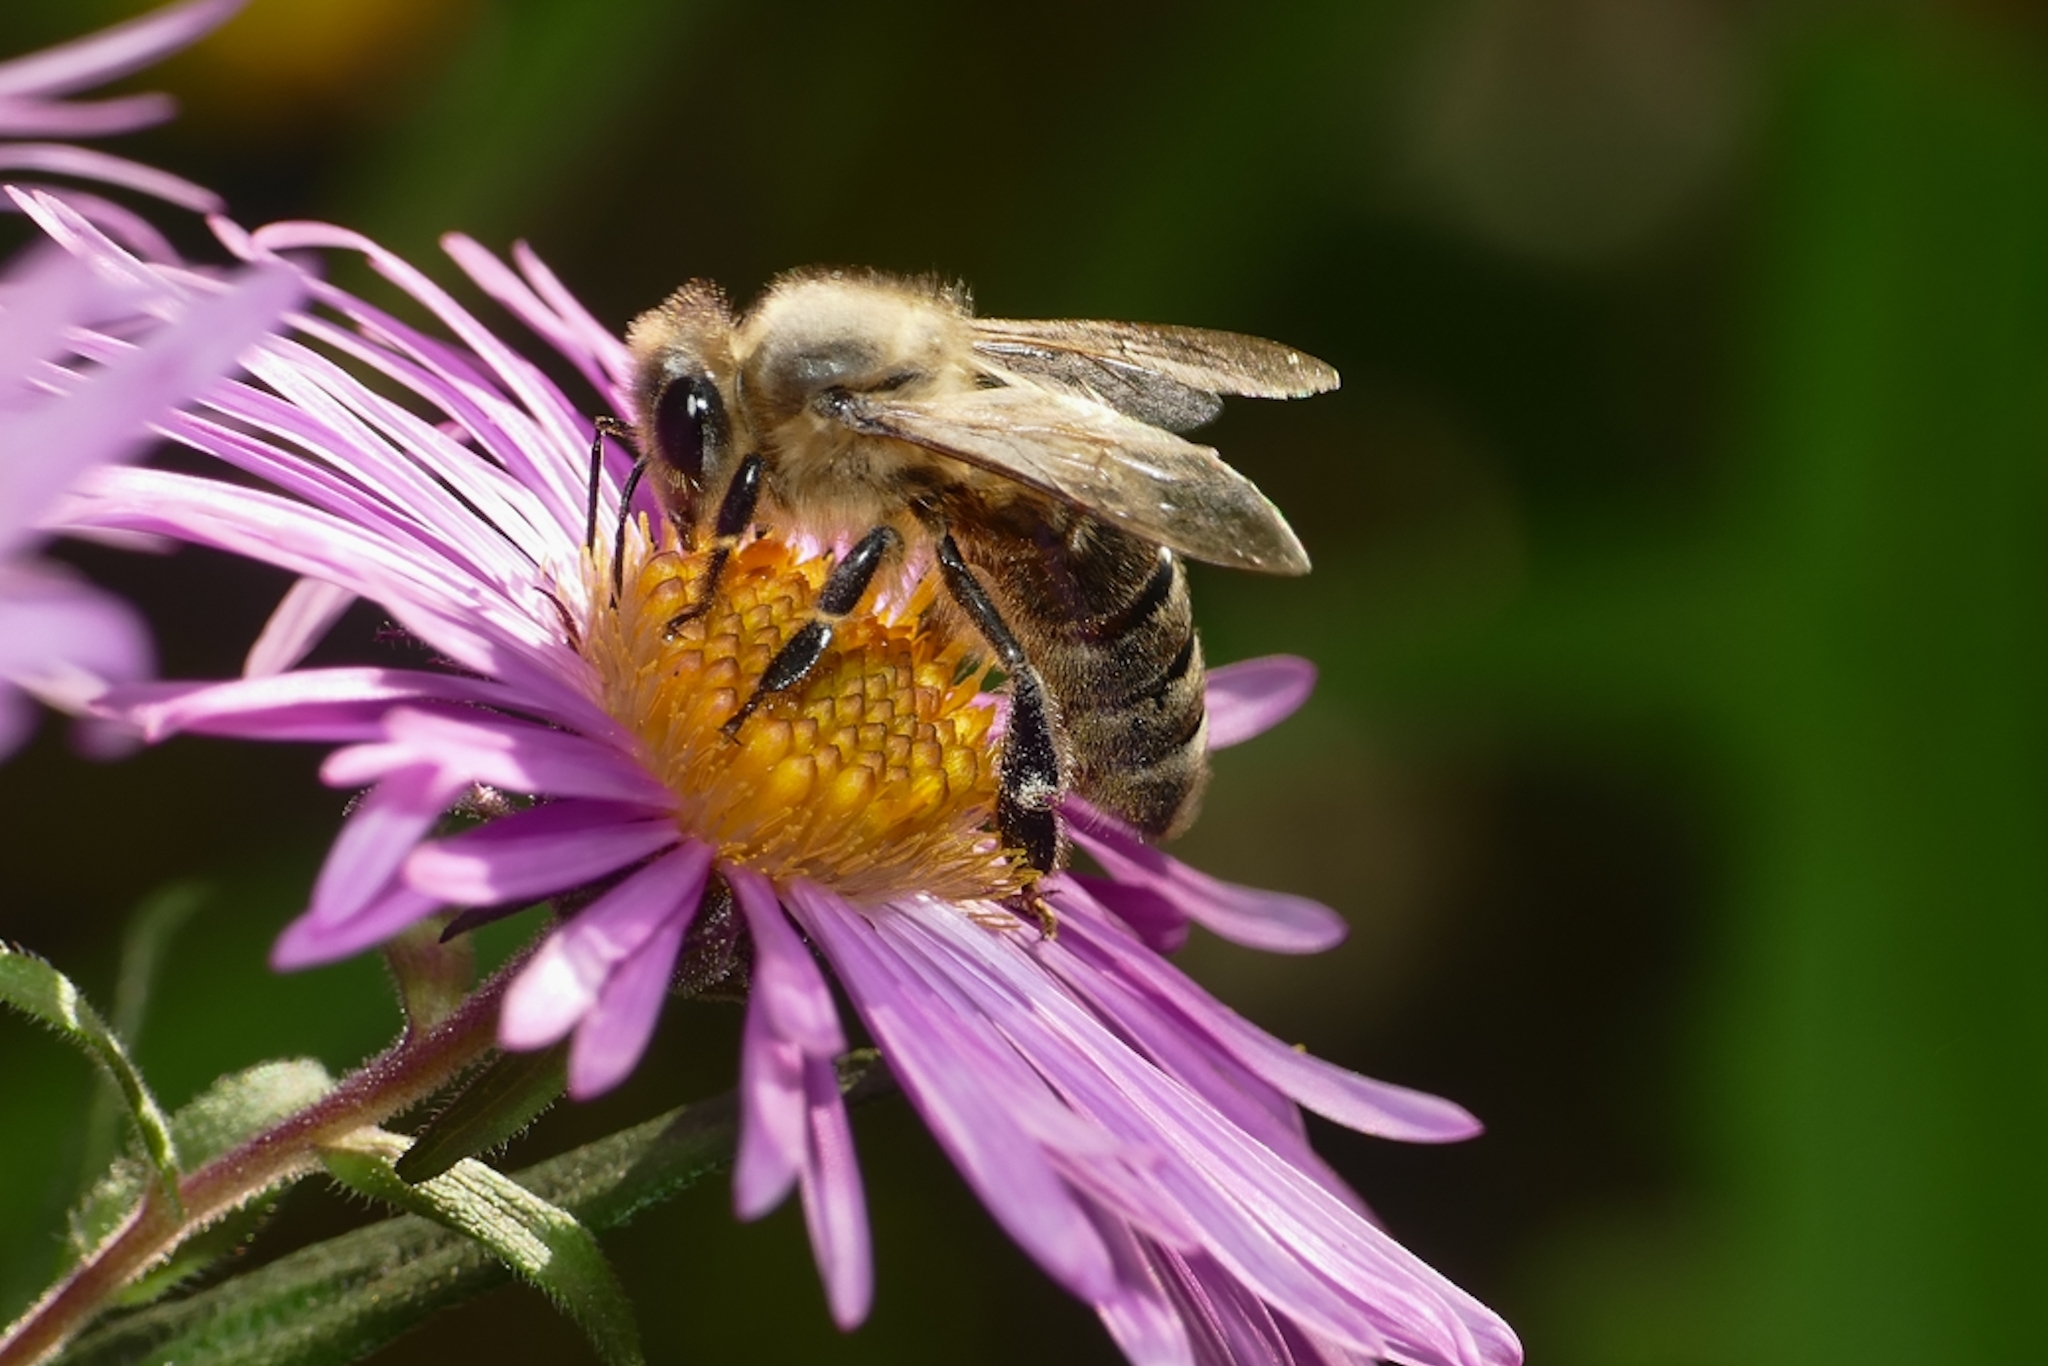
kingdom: Animalia
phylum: Arthropoda
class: Insecta
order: Hymenoptera
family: Apidae
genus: Apis
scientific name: Apis mellifera
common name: Honey bee
